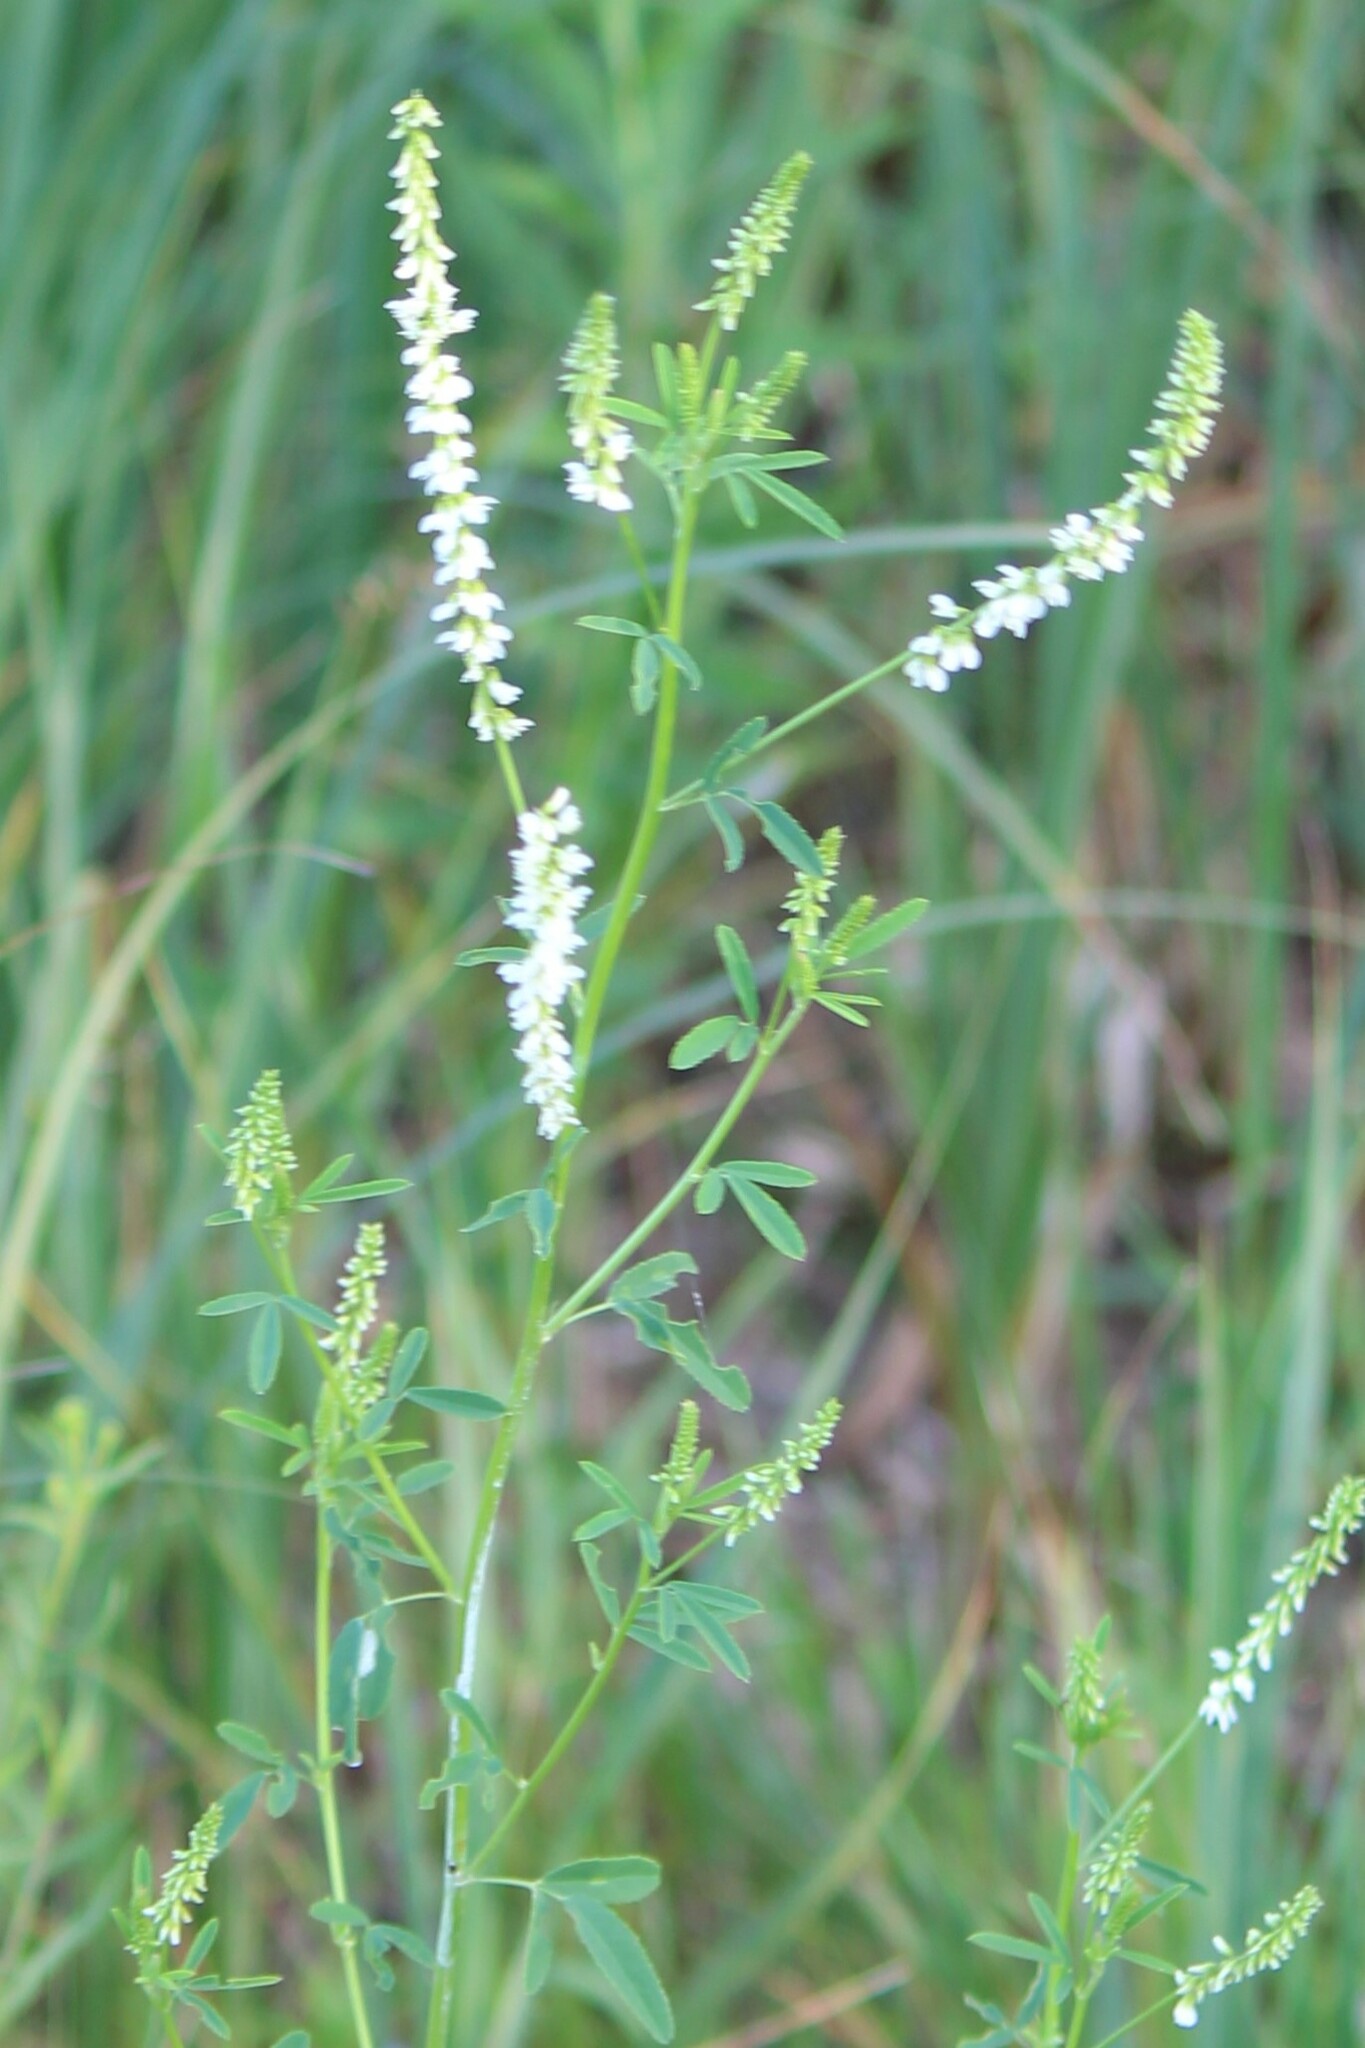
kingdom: Plantae
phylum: Tracheophyta
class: Magnoliopsida
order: Fabales
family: Fabaceae
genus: Melilotus
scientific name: Melilotus albus
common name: White melilot
